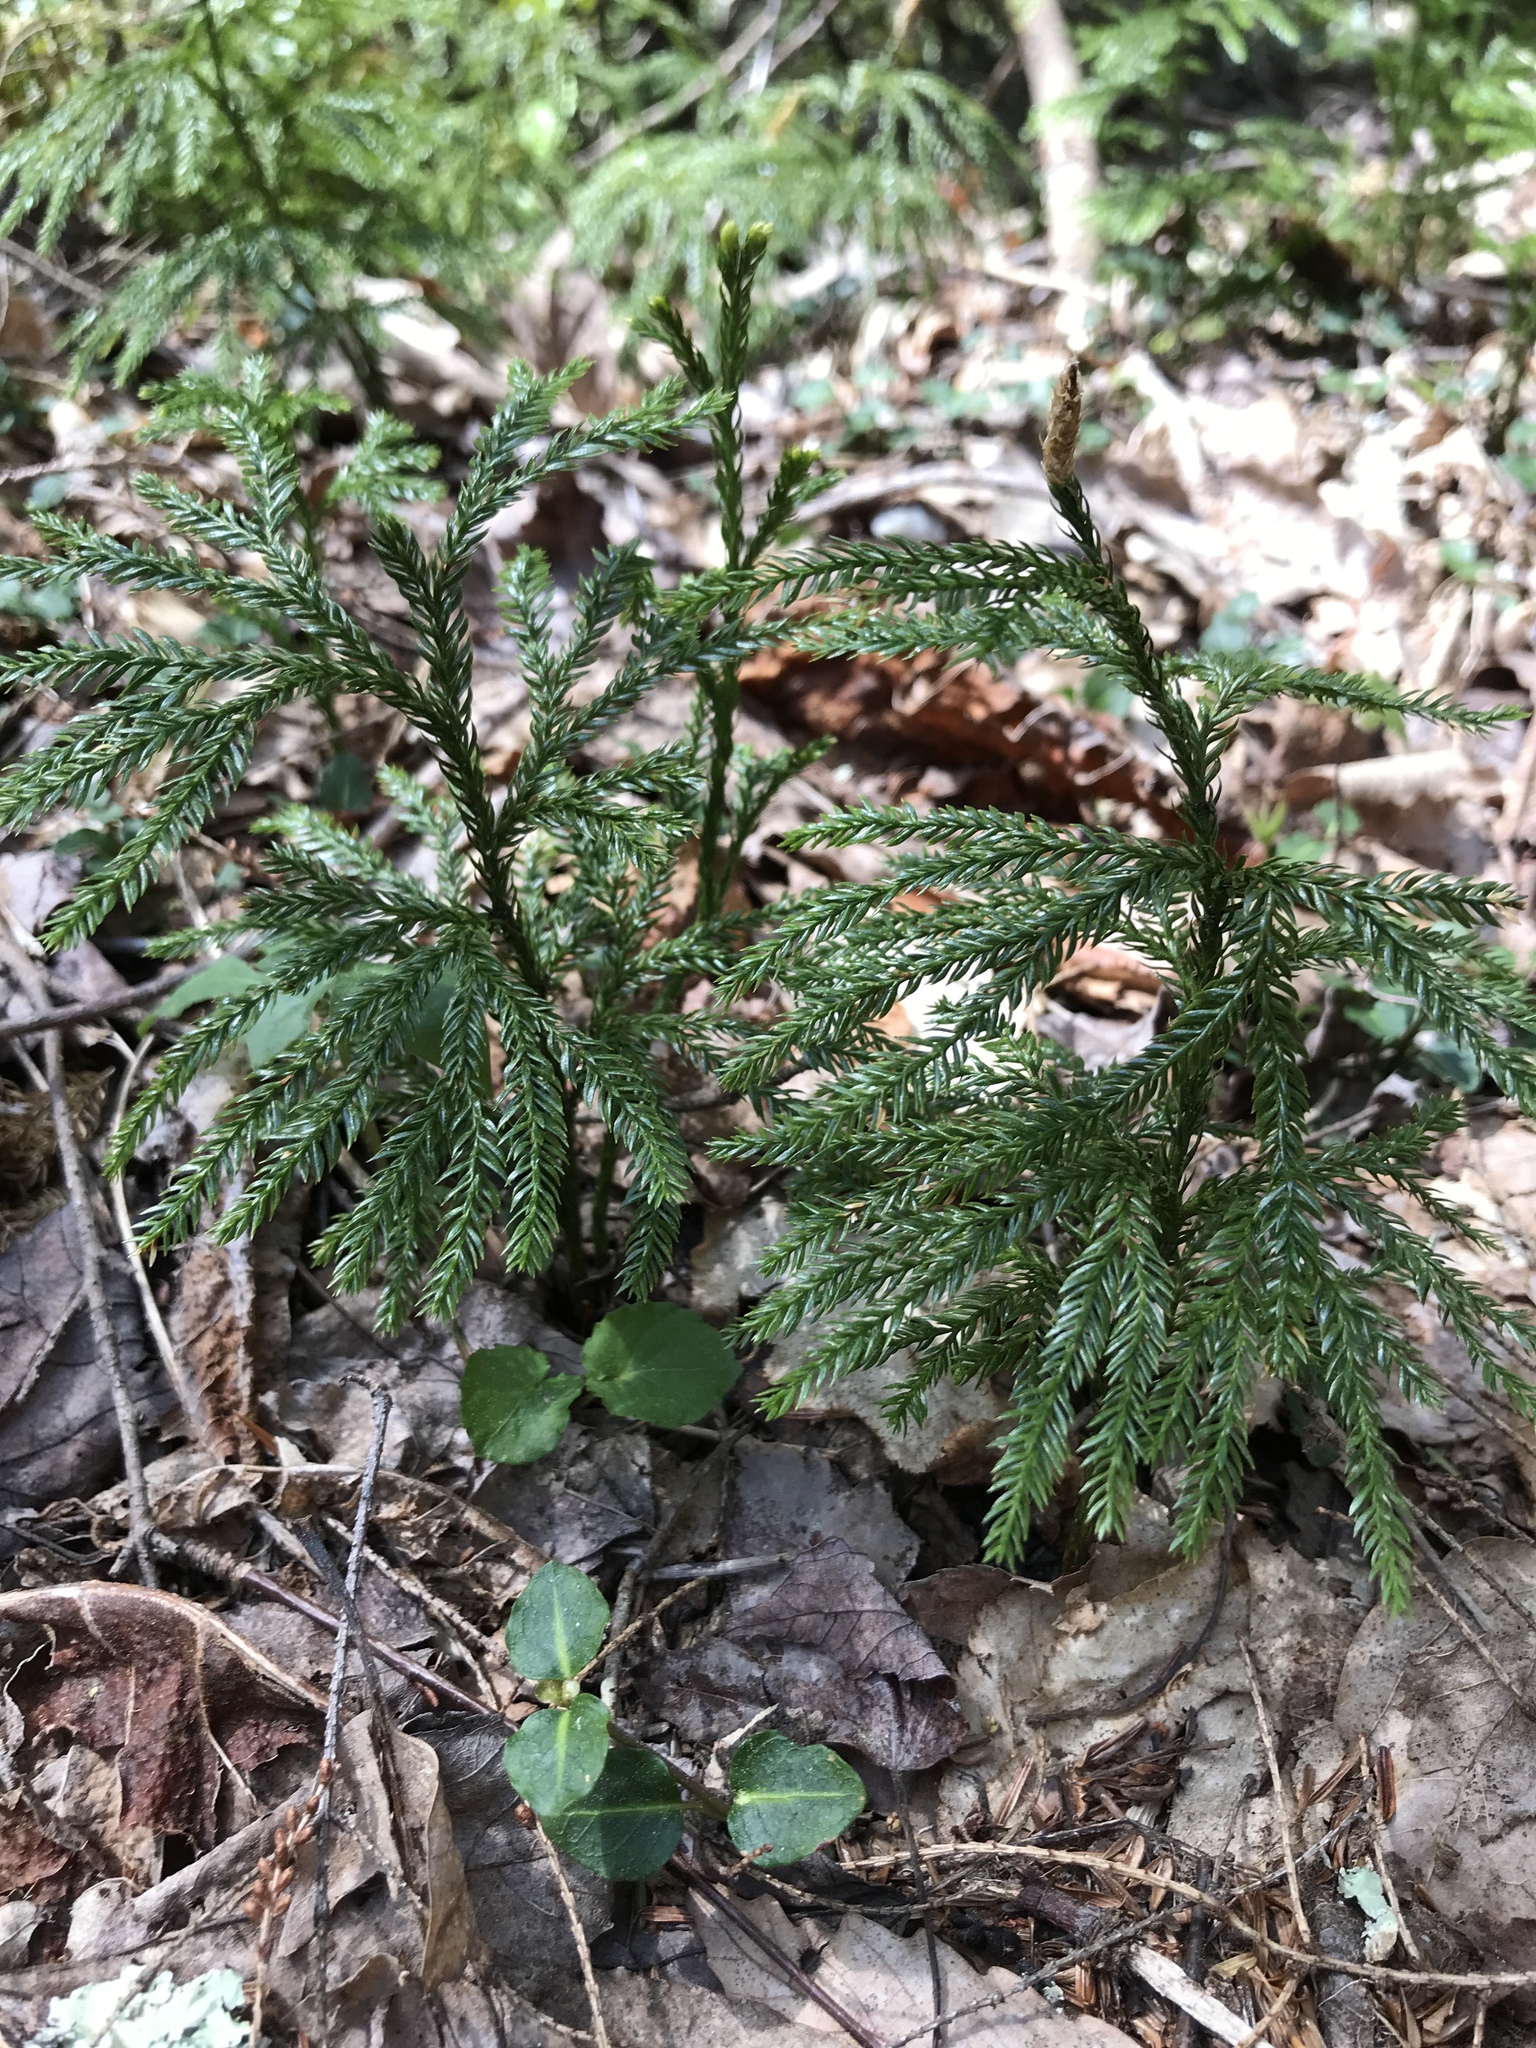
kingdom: Plantae
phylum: Tracheophyta
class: Lycopodiopsida
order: Lycopodiales
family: Lycopodiaceae
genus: Dendrolycopodium
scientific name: Dendrolycopodium obscurum
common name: Common ground-pine
